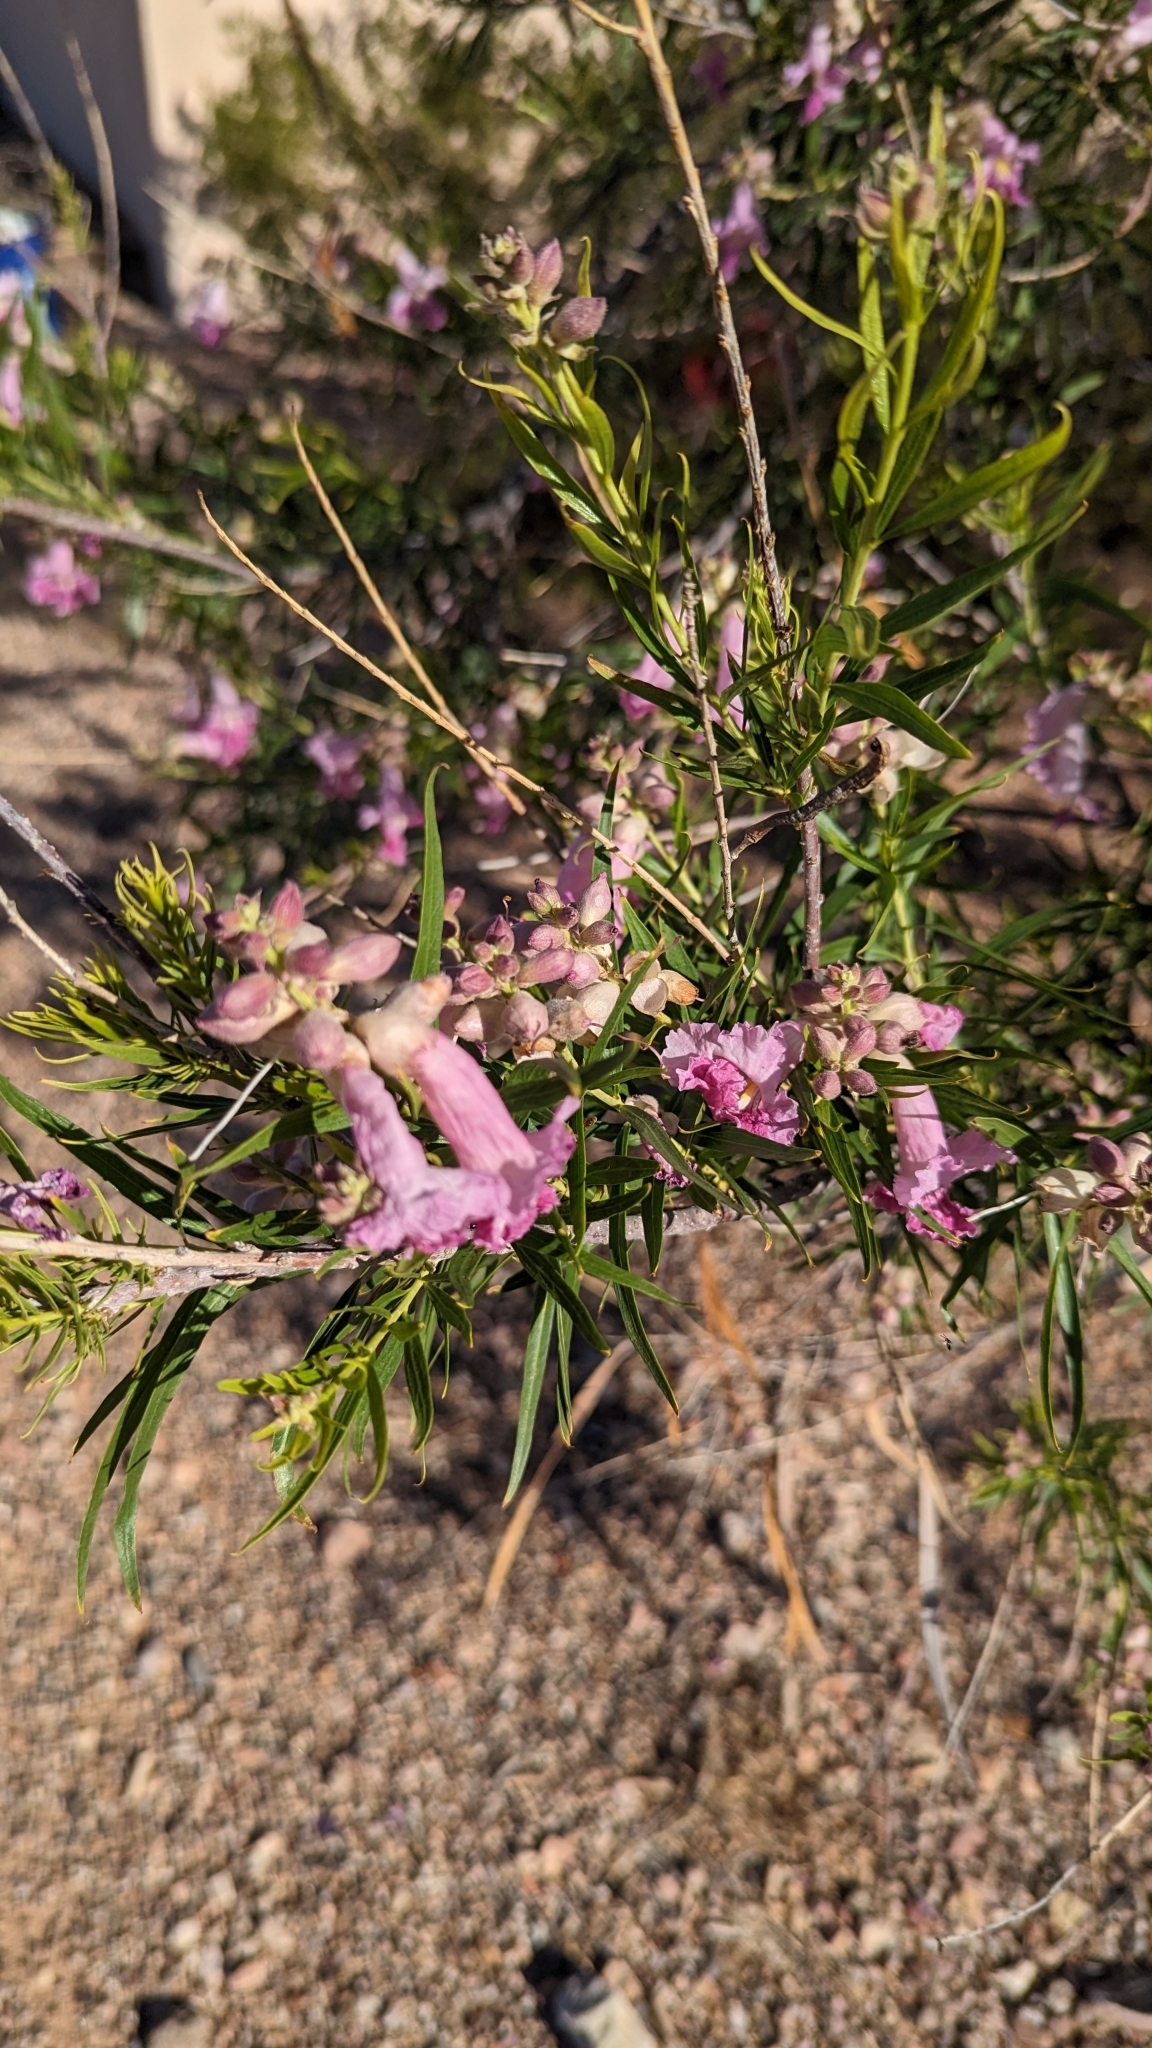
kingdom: Plantae
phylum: Tracheophyta
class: Magnoliopsida
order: Lamiales
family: Bignoniaceae
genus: Chilopsis
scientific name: Chilopsis linearis
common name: Desert-willow
